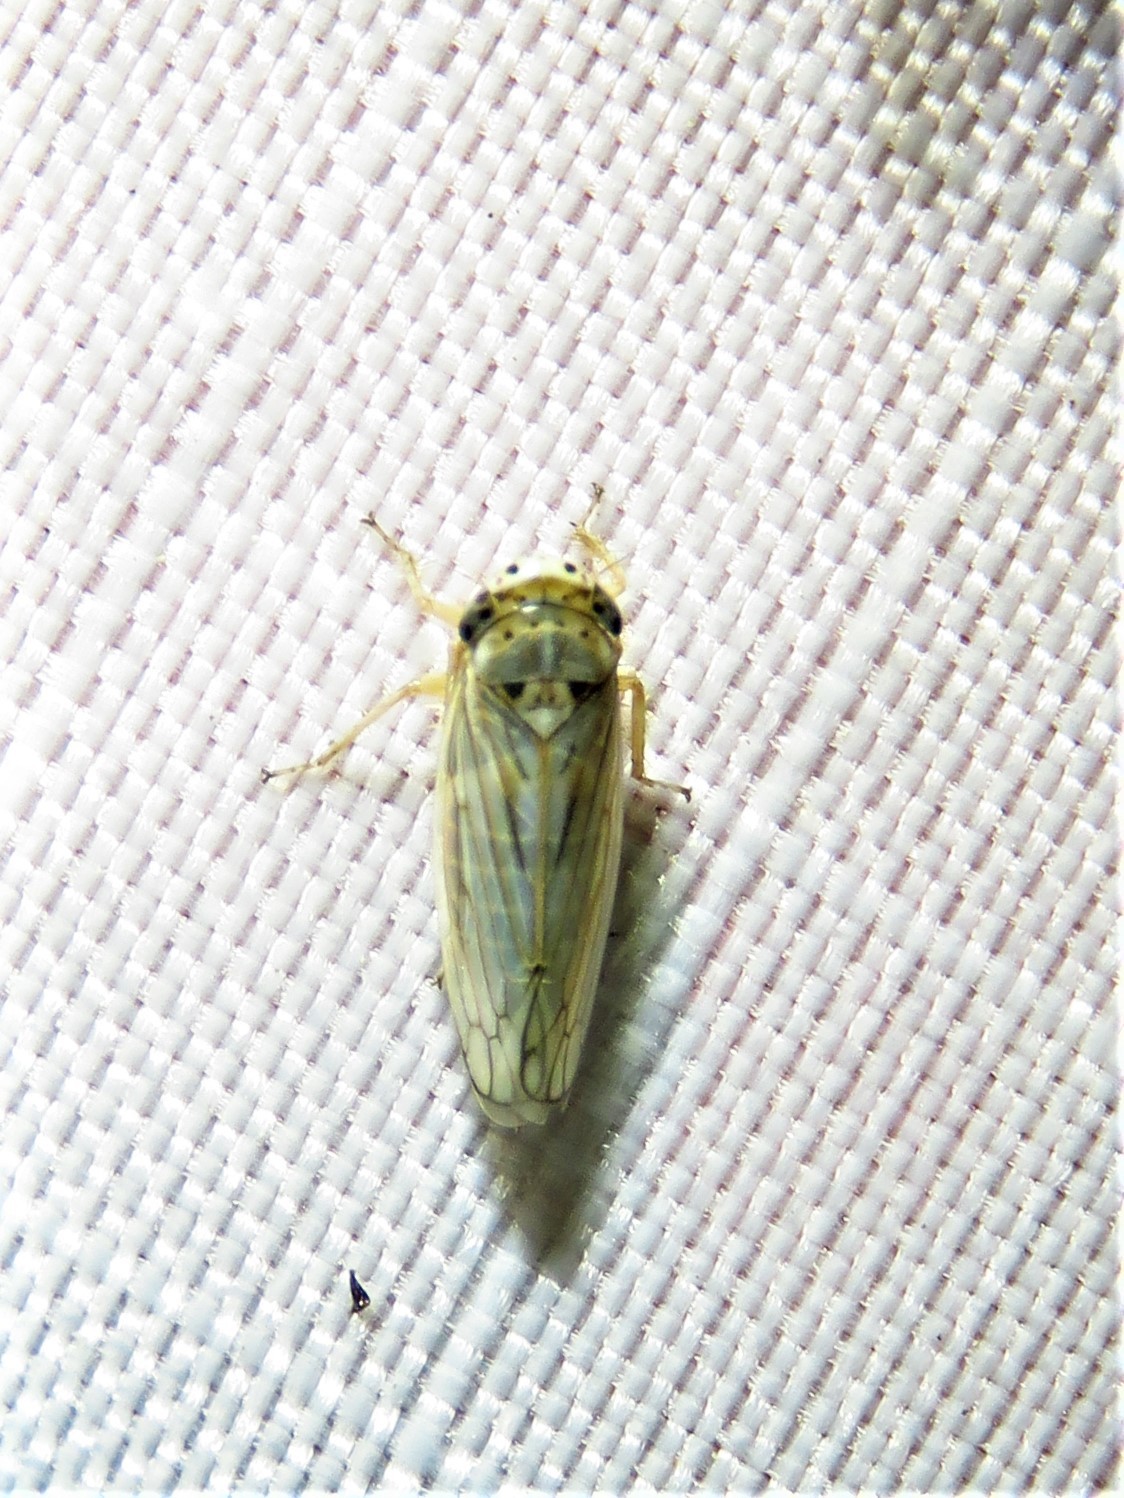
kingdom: Animalia
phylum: Arthropoda
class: Insecta
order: Hemiptera
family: Cicadellidae
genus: Exitianus
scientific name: Exitianus exitiosus
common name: Gray lawn leafhopper
